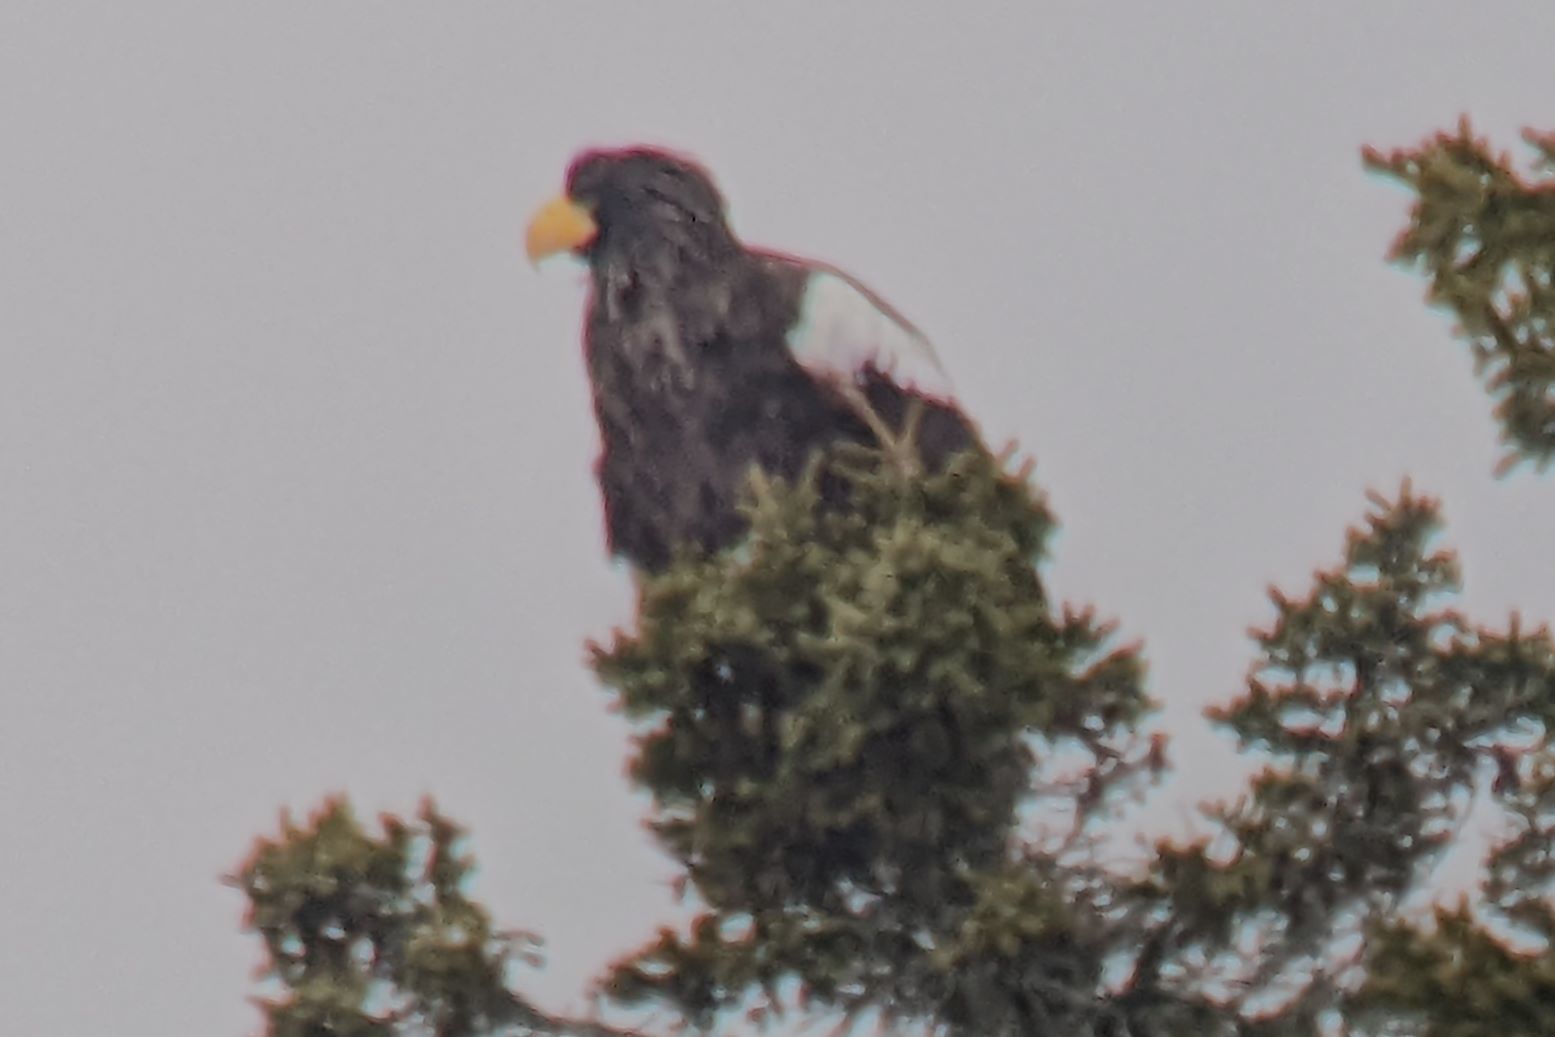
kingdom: Animalia
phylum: Chordata
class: Aves
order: Accipitriformes
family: Accipitridae
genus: Haliaeetus
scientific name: Haliaeetus pelagicus
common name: Steller's sea eagle
